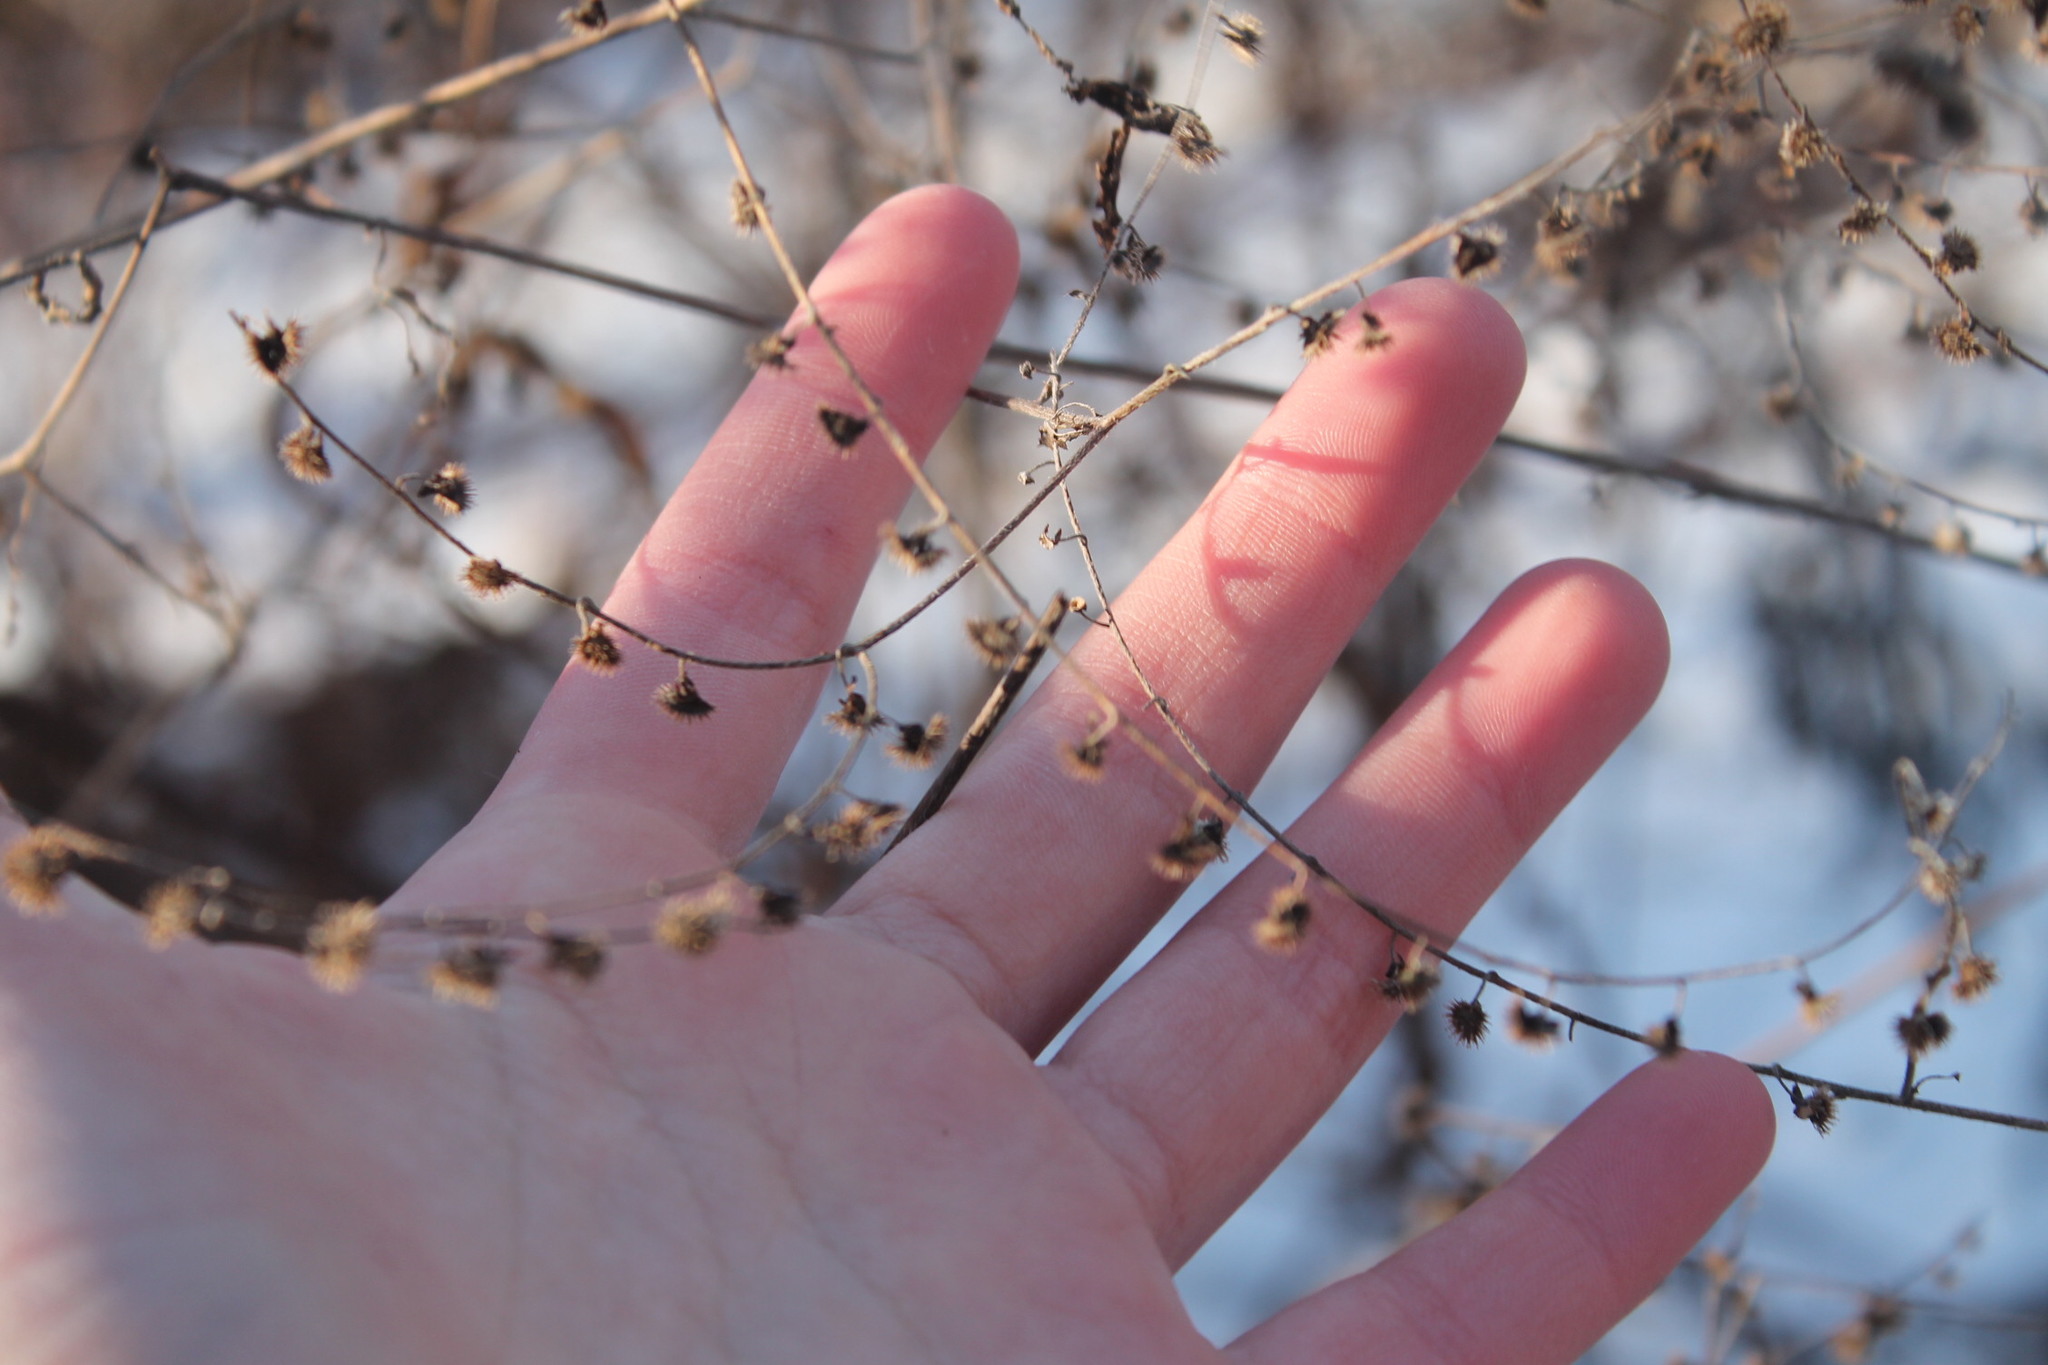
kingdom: Plantae
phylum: Tracheophyta
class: Magnoliopsida
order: Boraginales
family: Boraginaceae
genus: Hackelia
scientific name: Hackelia virginiana
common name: Beggar's-lice
